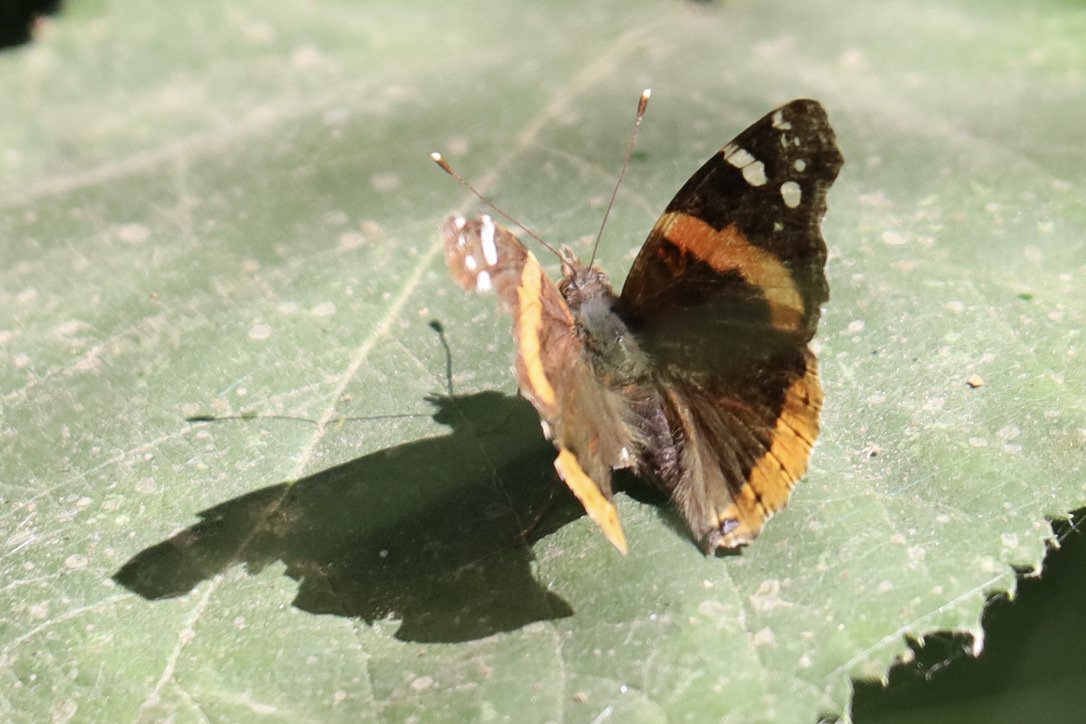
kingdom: Animalia
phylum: Arthropoda
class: Insecta
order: Lepidoptera
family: Nymphalidae
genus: Vanessa
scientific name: Vanessa atalanta
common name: Red admiral
